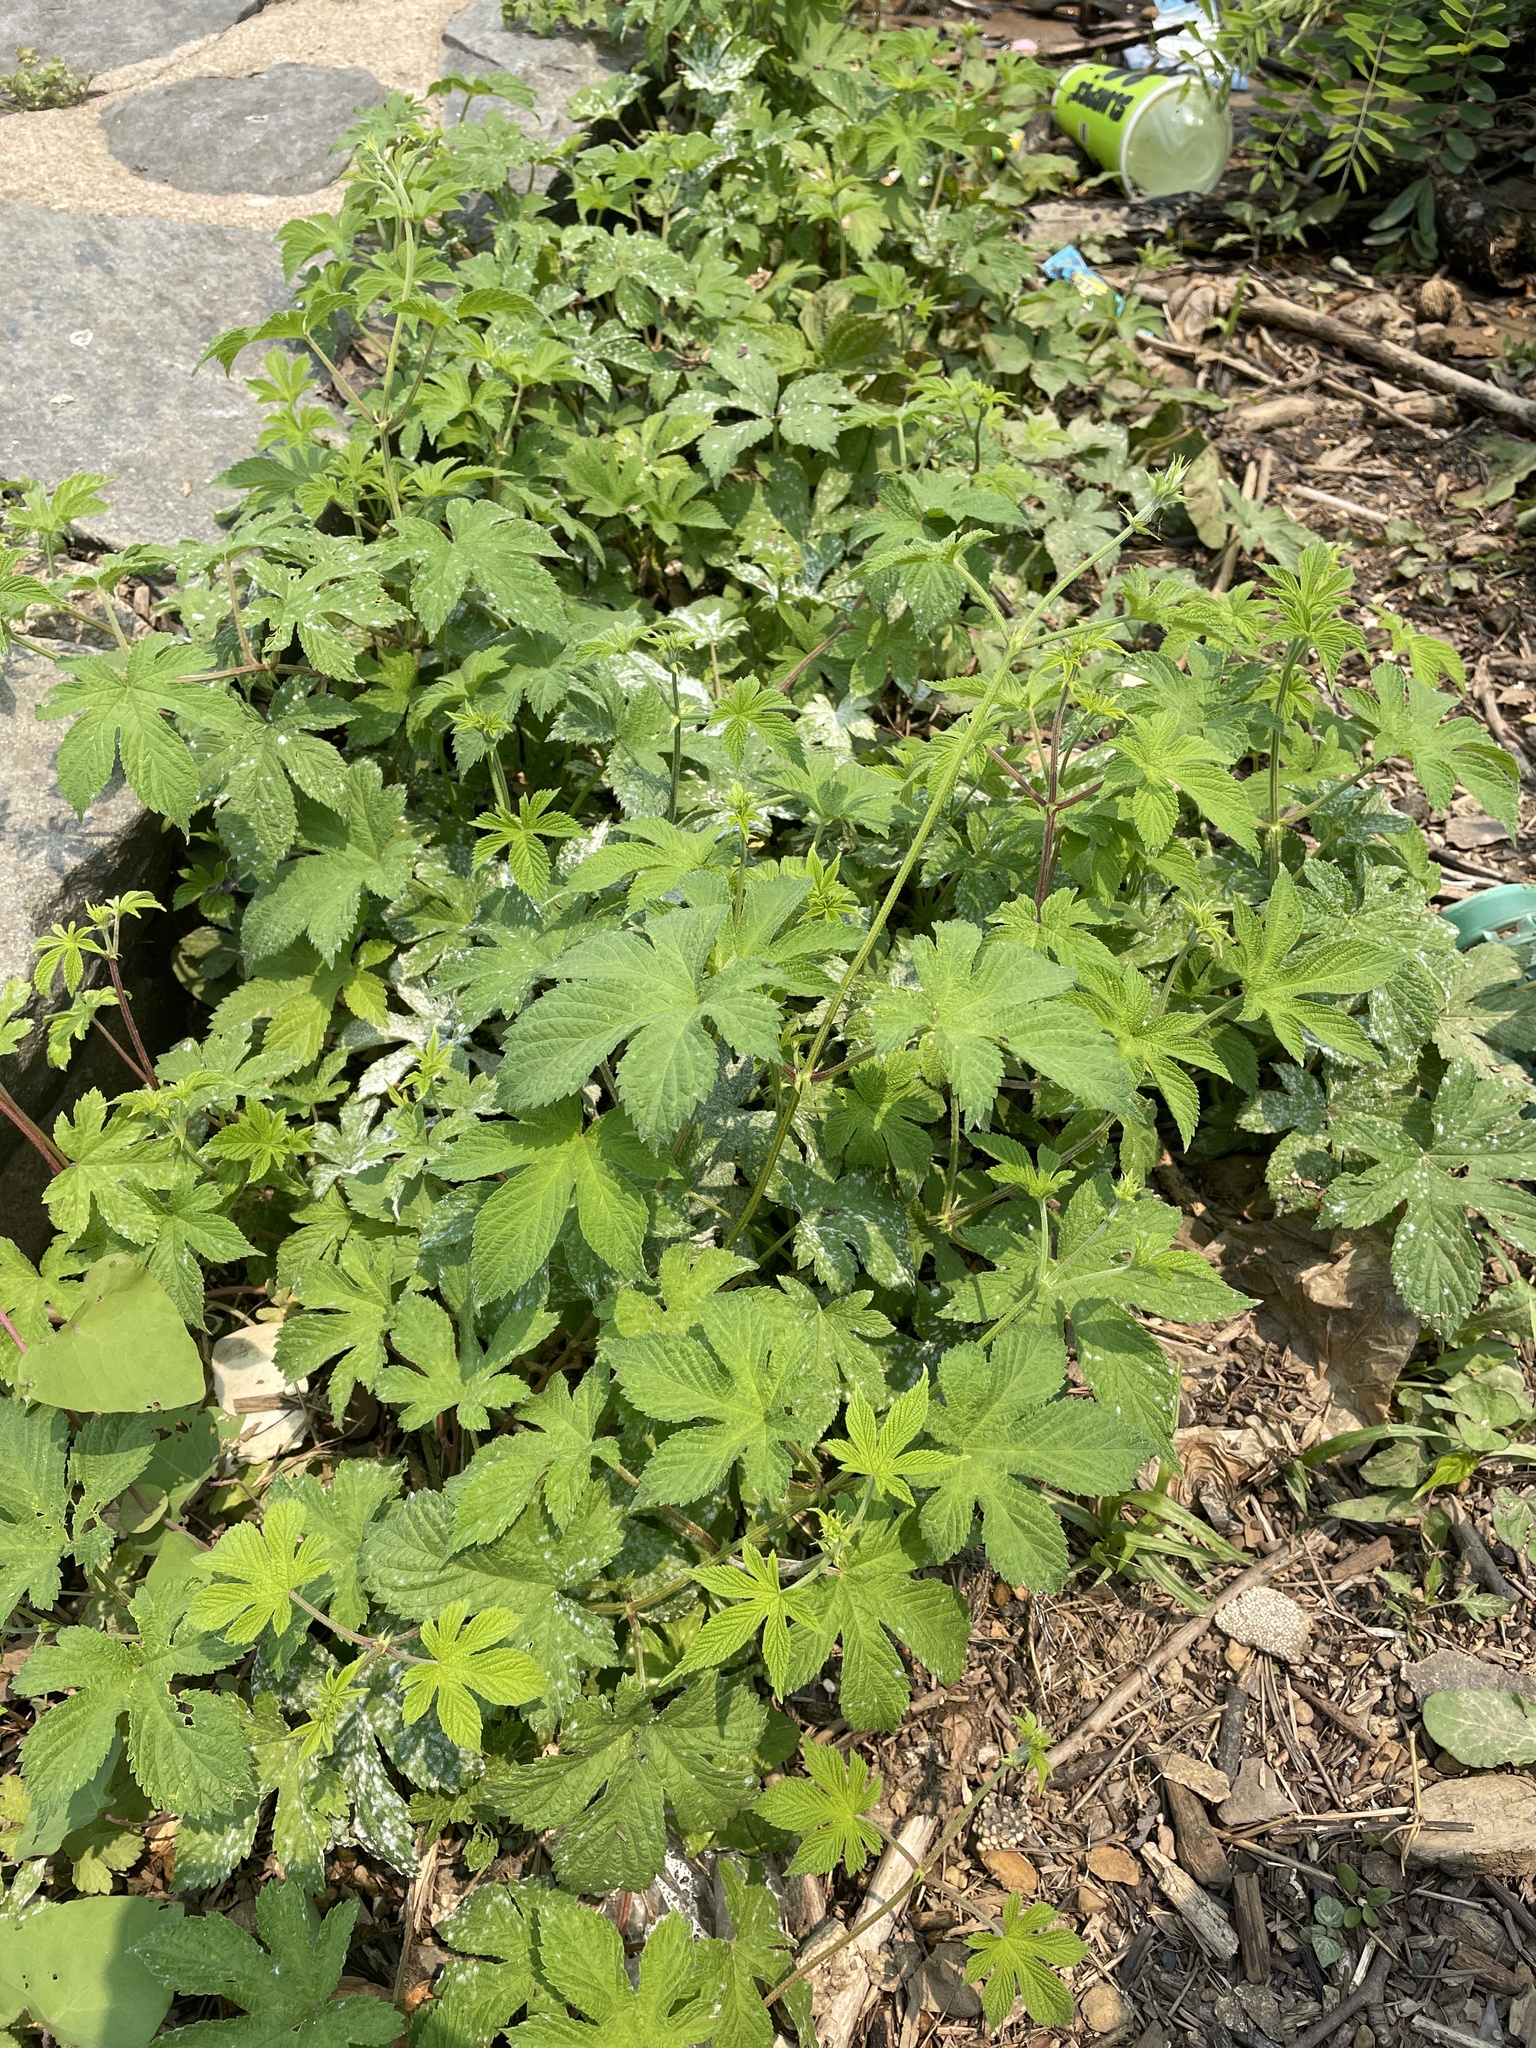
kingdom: Plantae
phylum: Tracheophyta
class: Magnoliopsida
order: Rosales
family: Cannabaceae
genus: Humulus
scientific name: Humulus scandens
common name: Japanese hop
